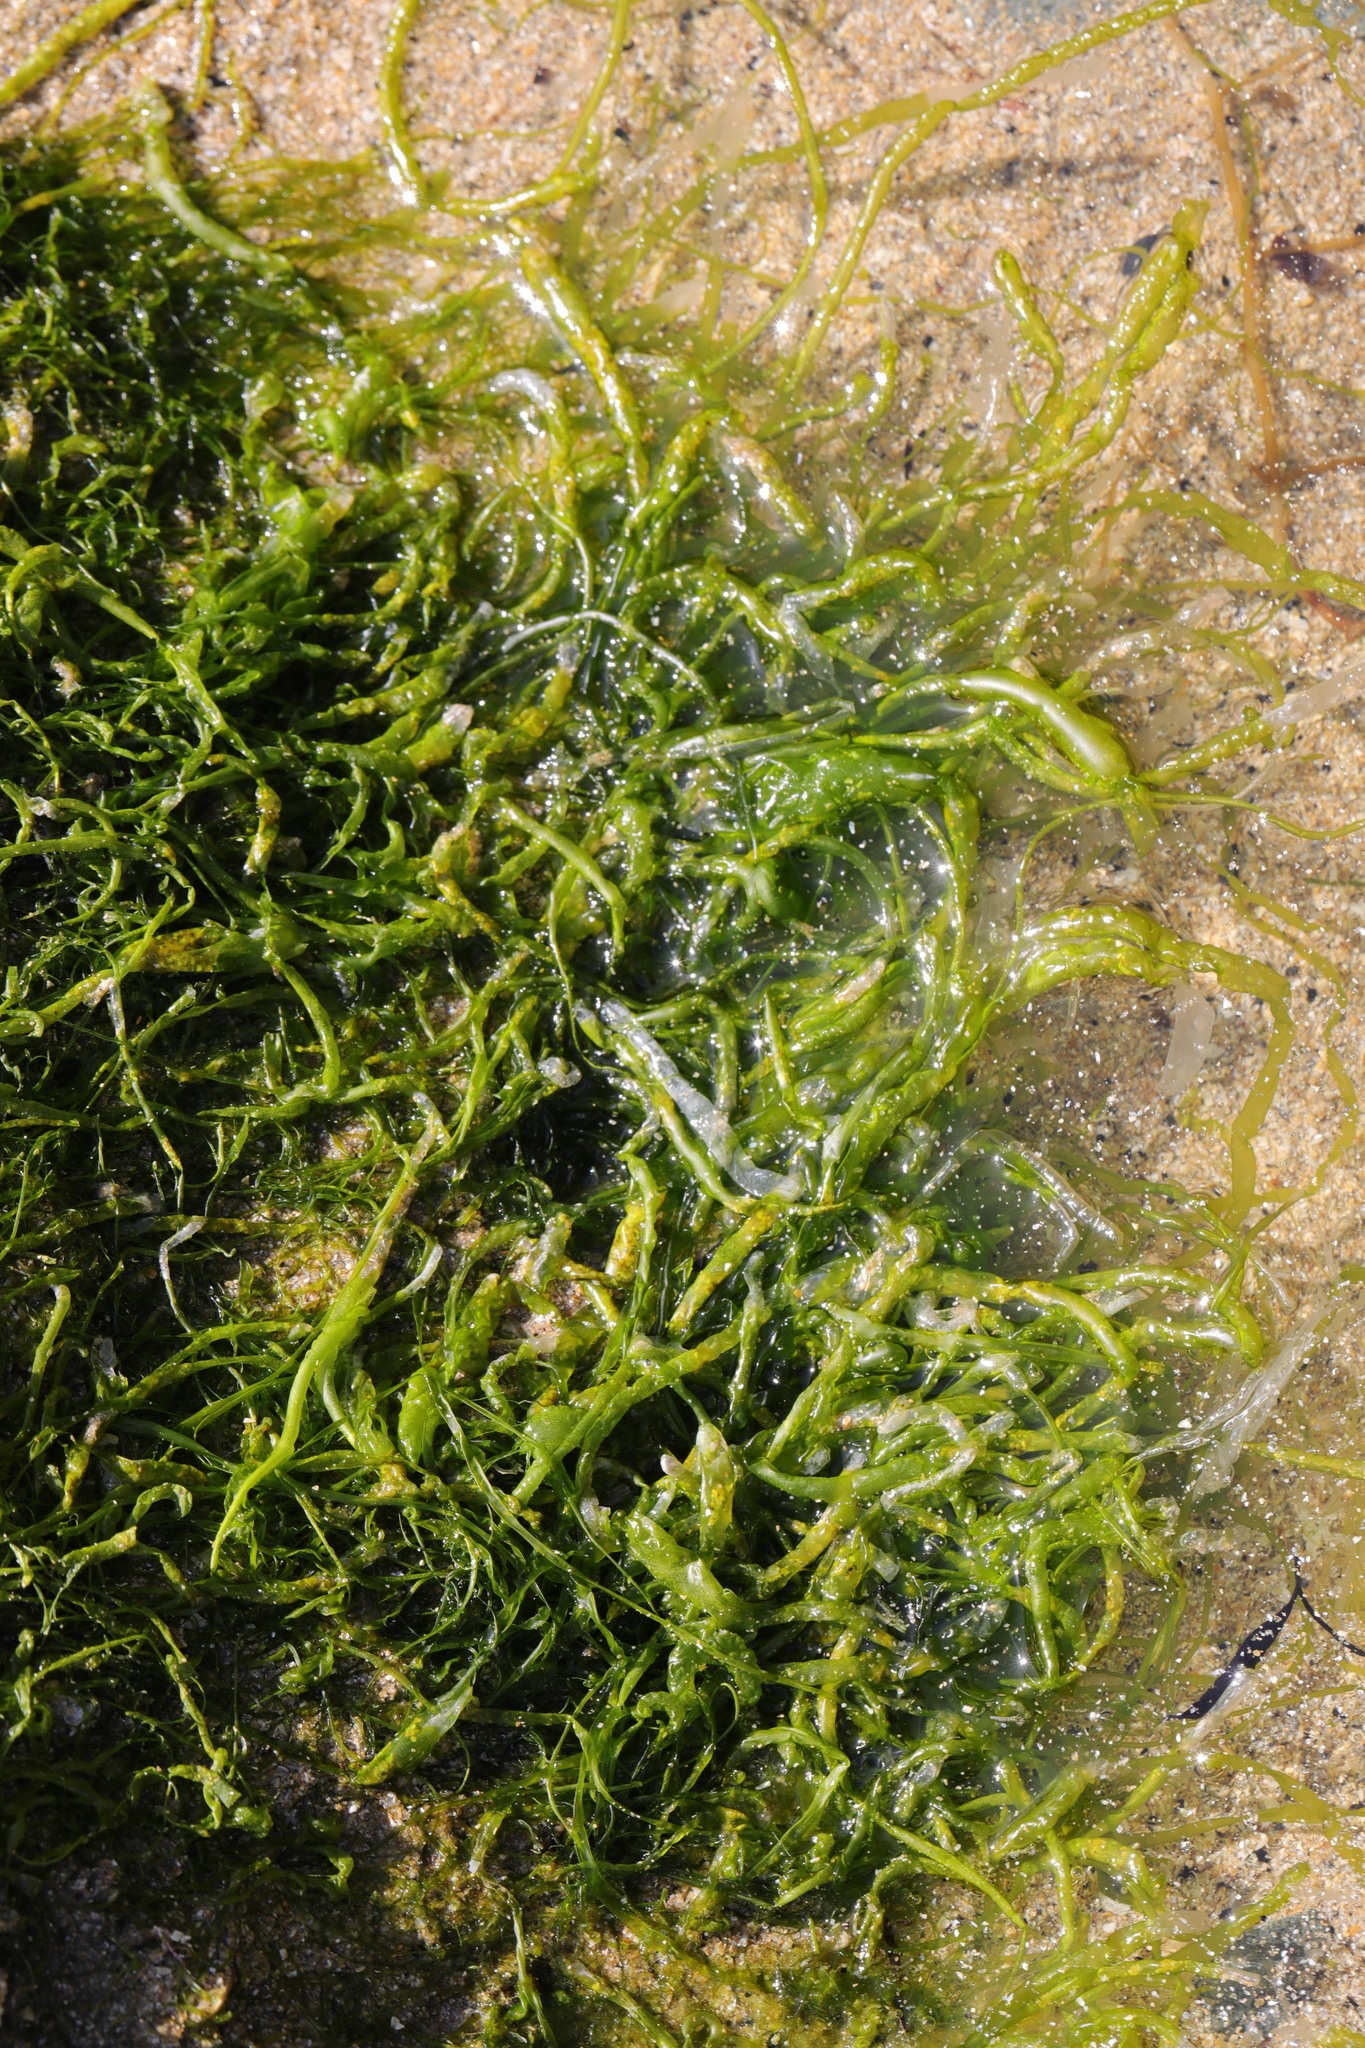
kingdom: Plantae
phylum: Chlorophyta
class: Ulvophyceae
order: Ulvales
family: Ulvaceae
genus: Ulva
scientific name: Ulva intestinalis
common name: Gut weed
